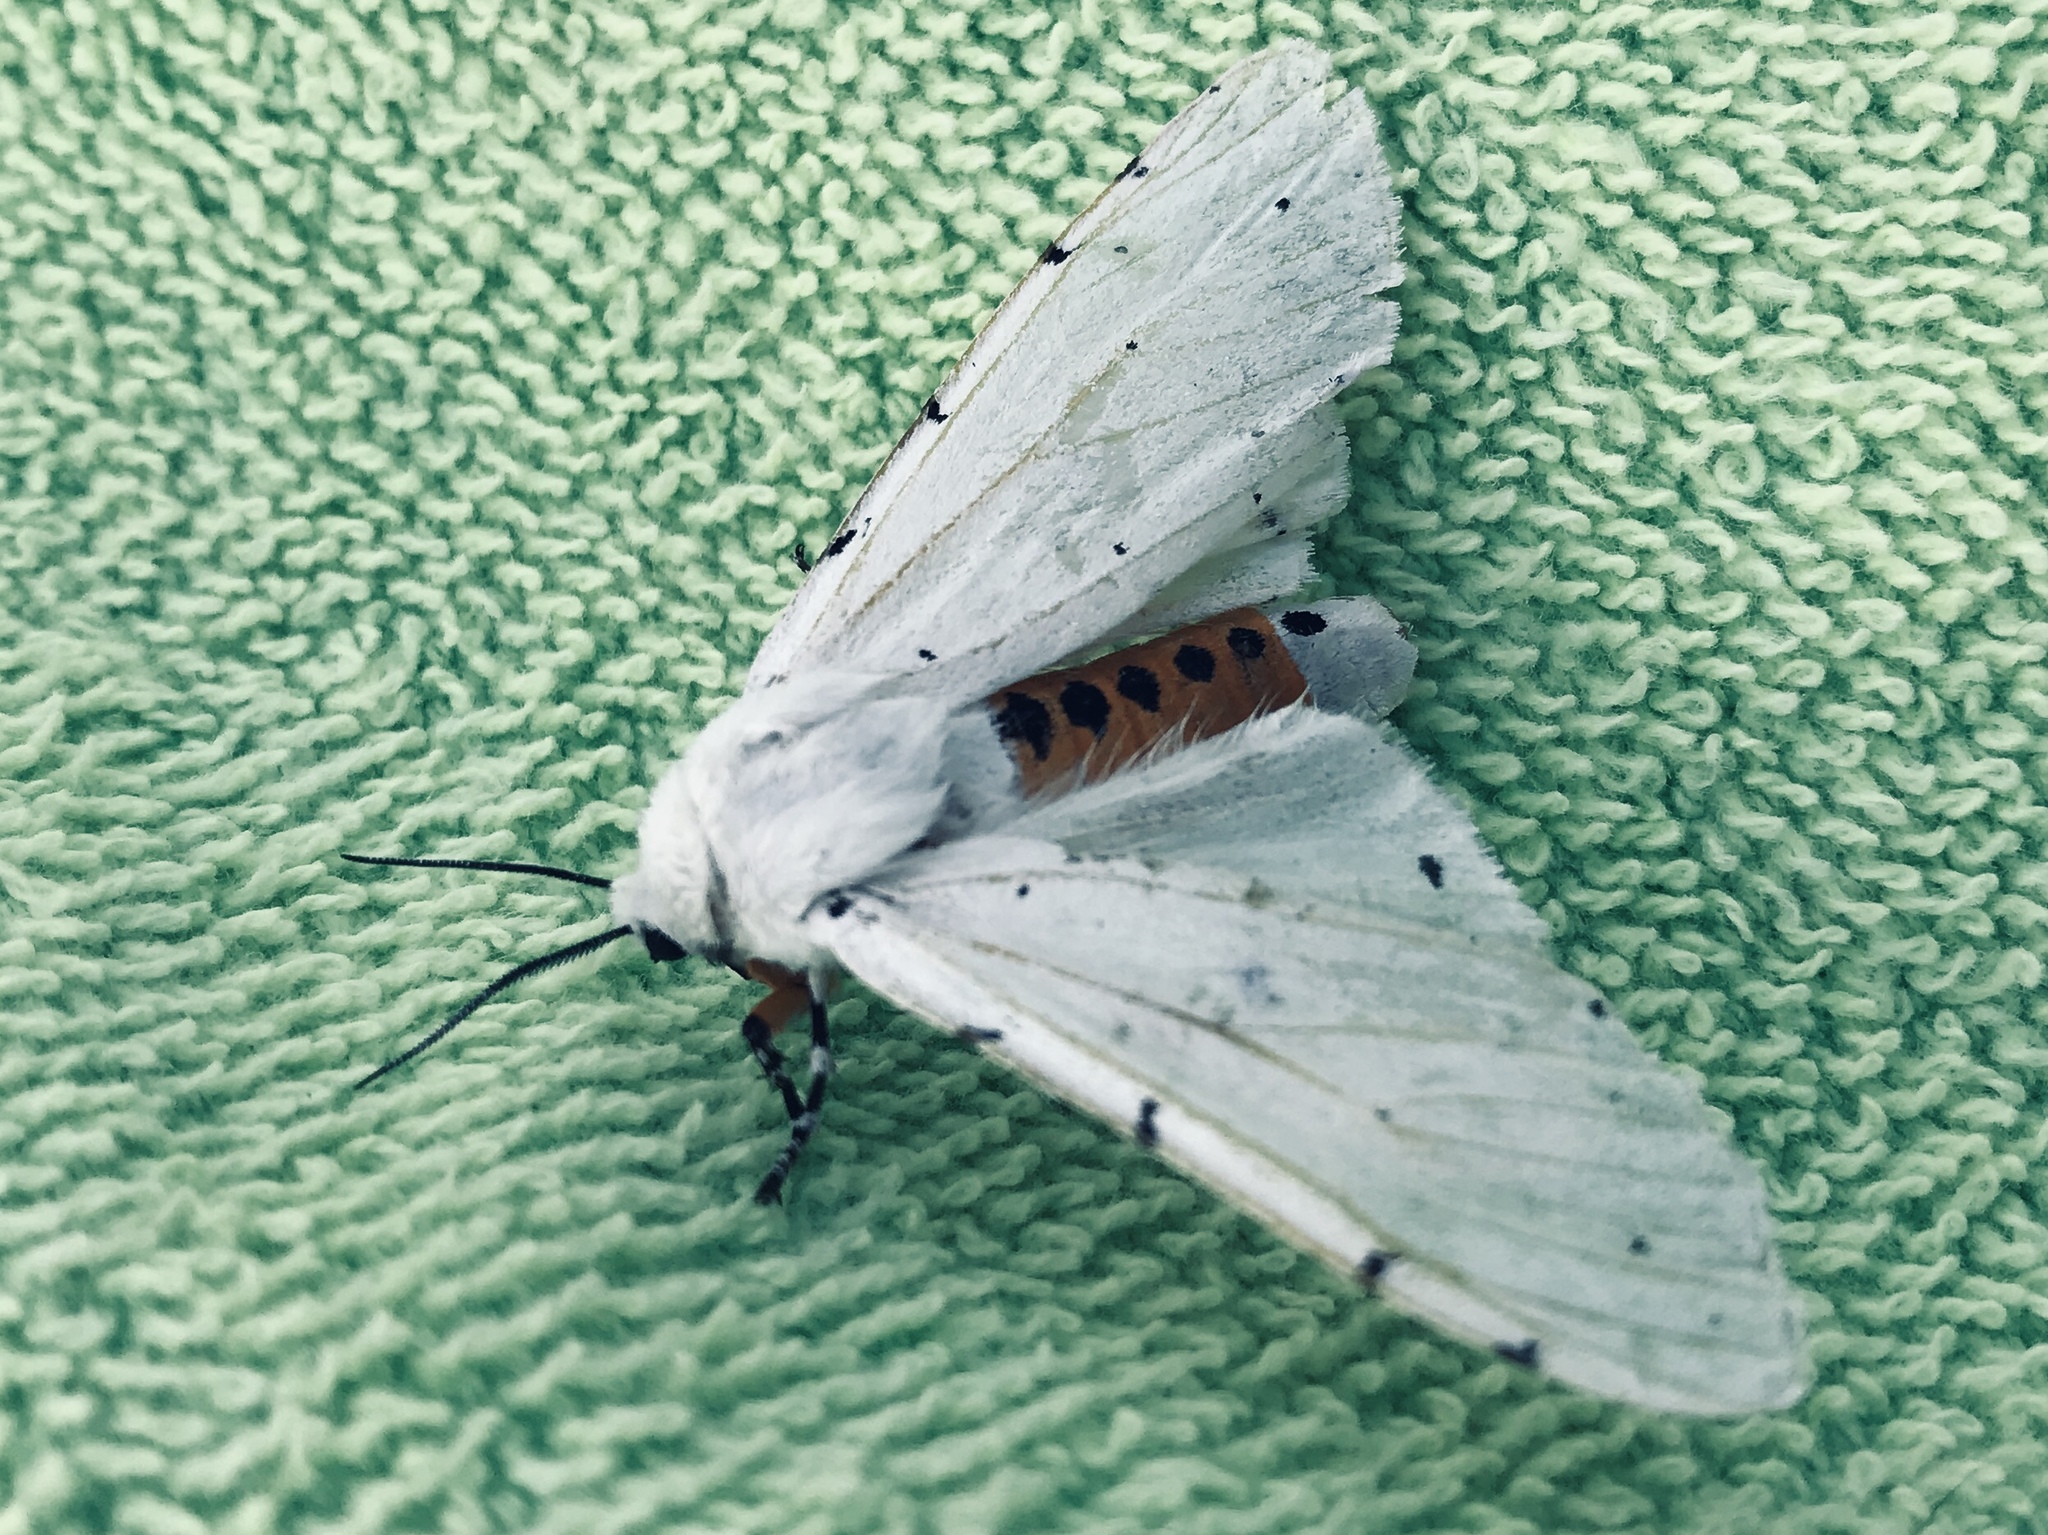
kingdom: Animalia
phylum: Arthropoda
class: Insecta
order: Lepidoptera
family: Erebidae
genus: Estigmene
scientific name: Estigmene acrea
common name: Salt marsh moth
